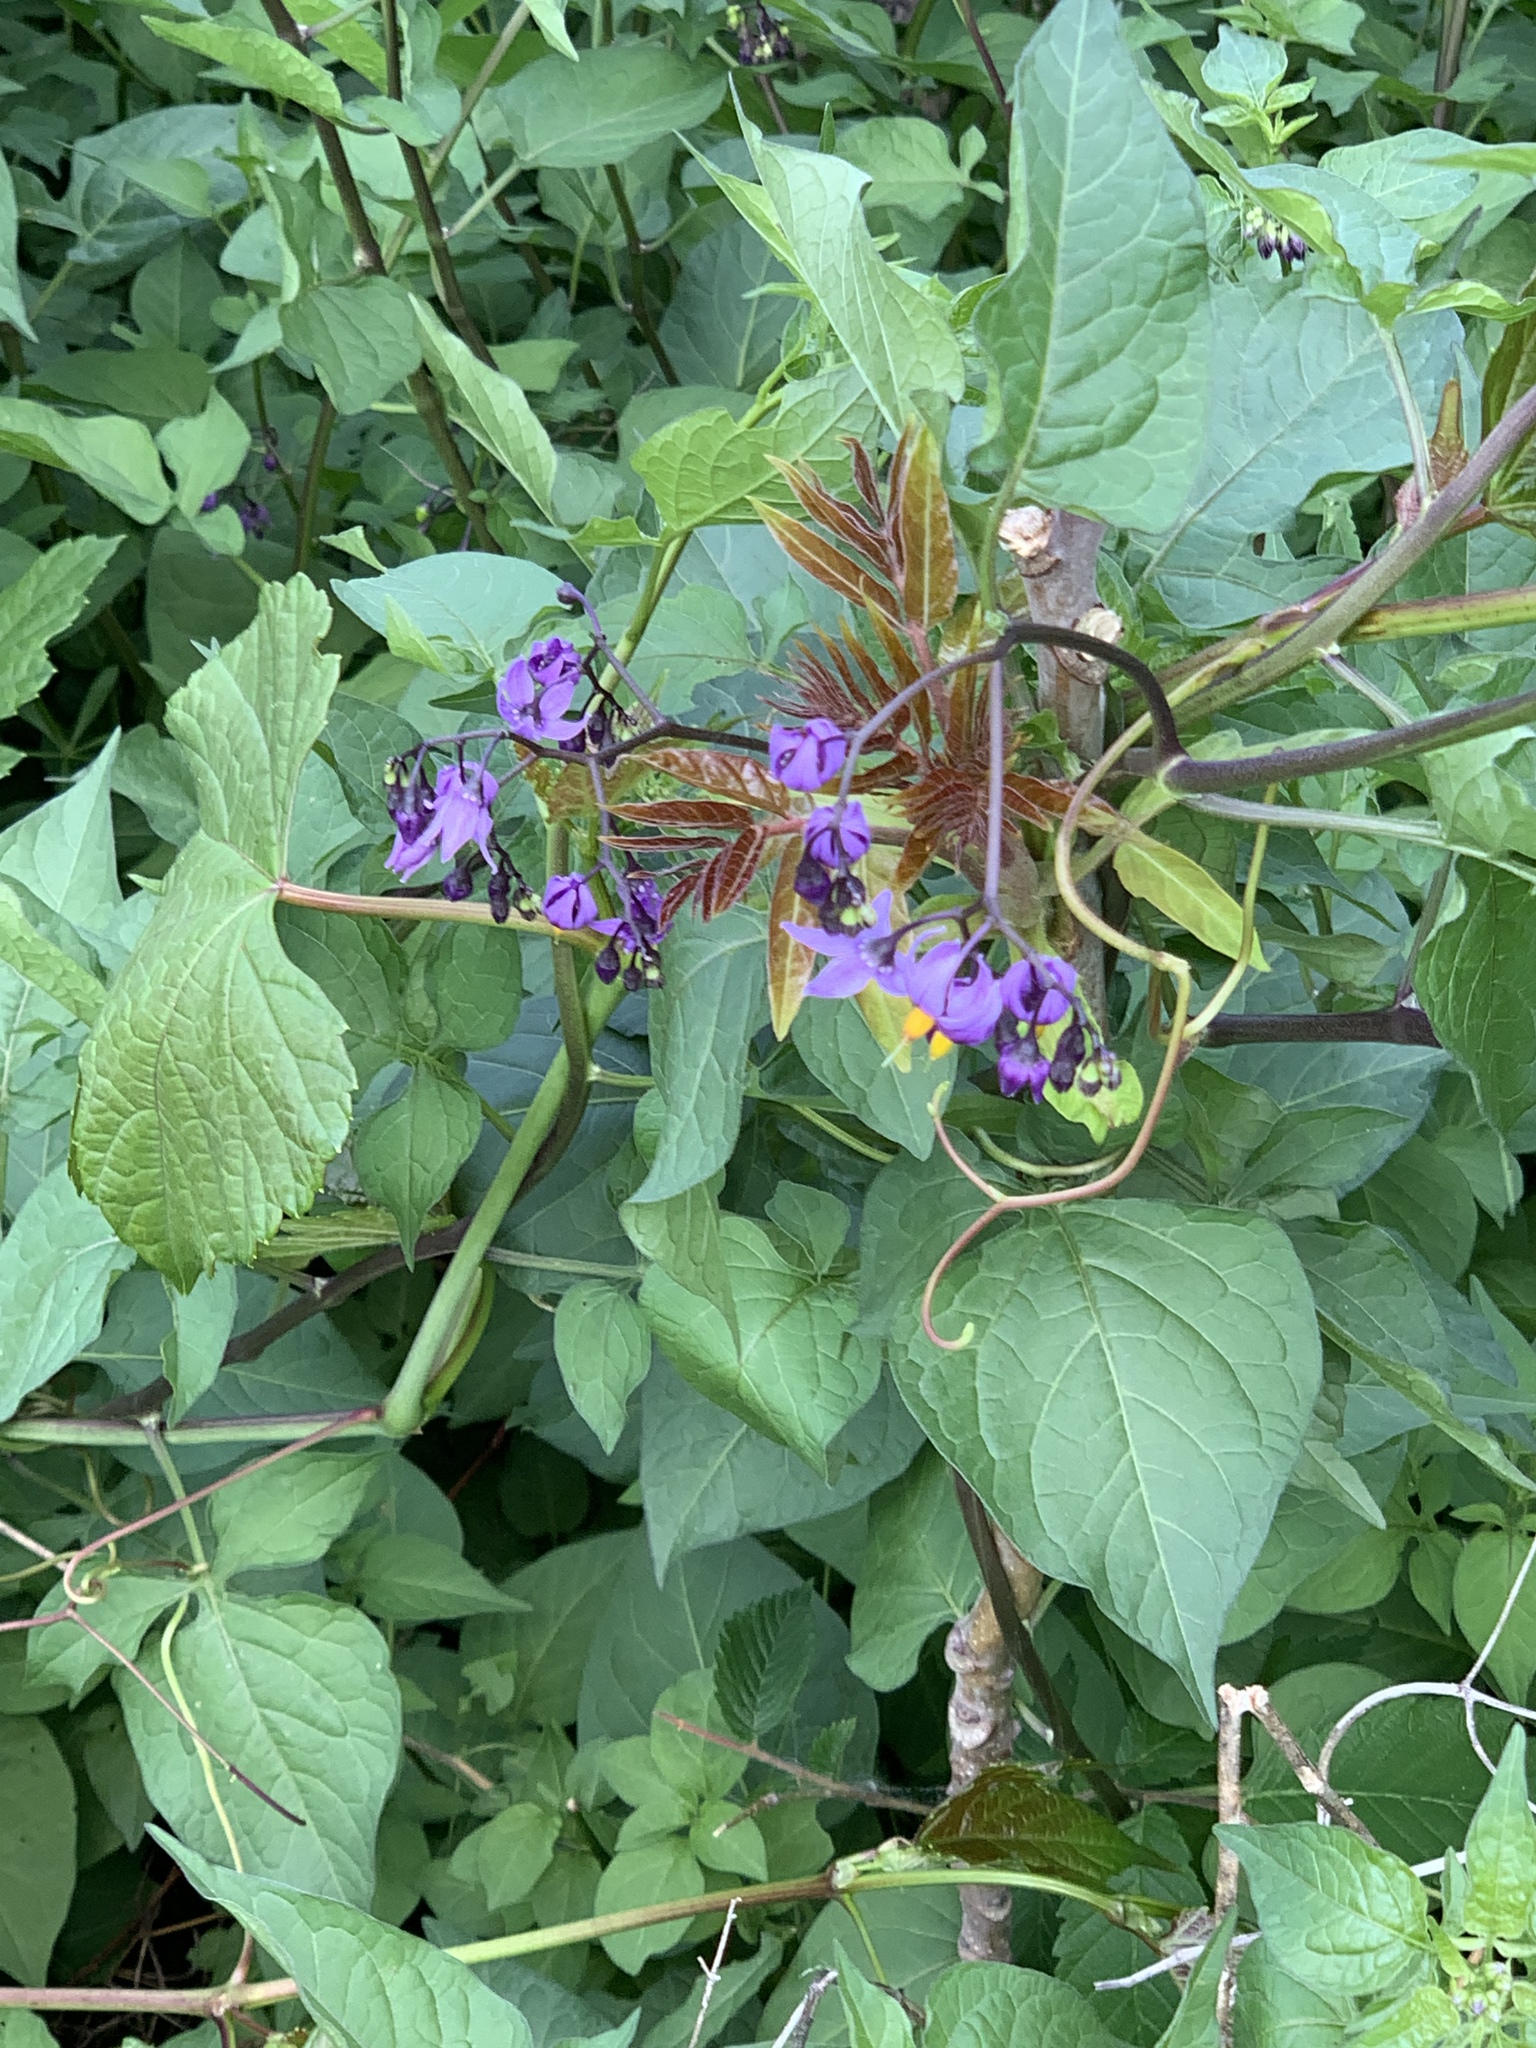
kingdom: Plantae
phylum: Tracheophyta
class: Magnoliopsida
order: Solanales
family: Solanaceae
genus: Solanum
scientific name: Solanum dulcamara
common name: Climbing nightshade
